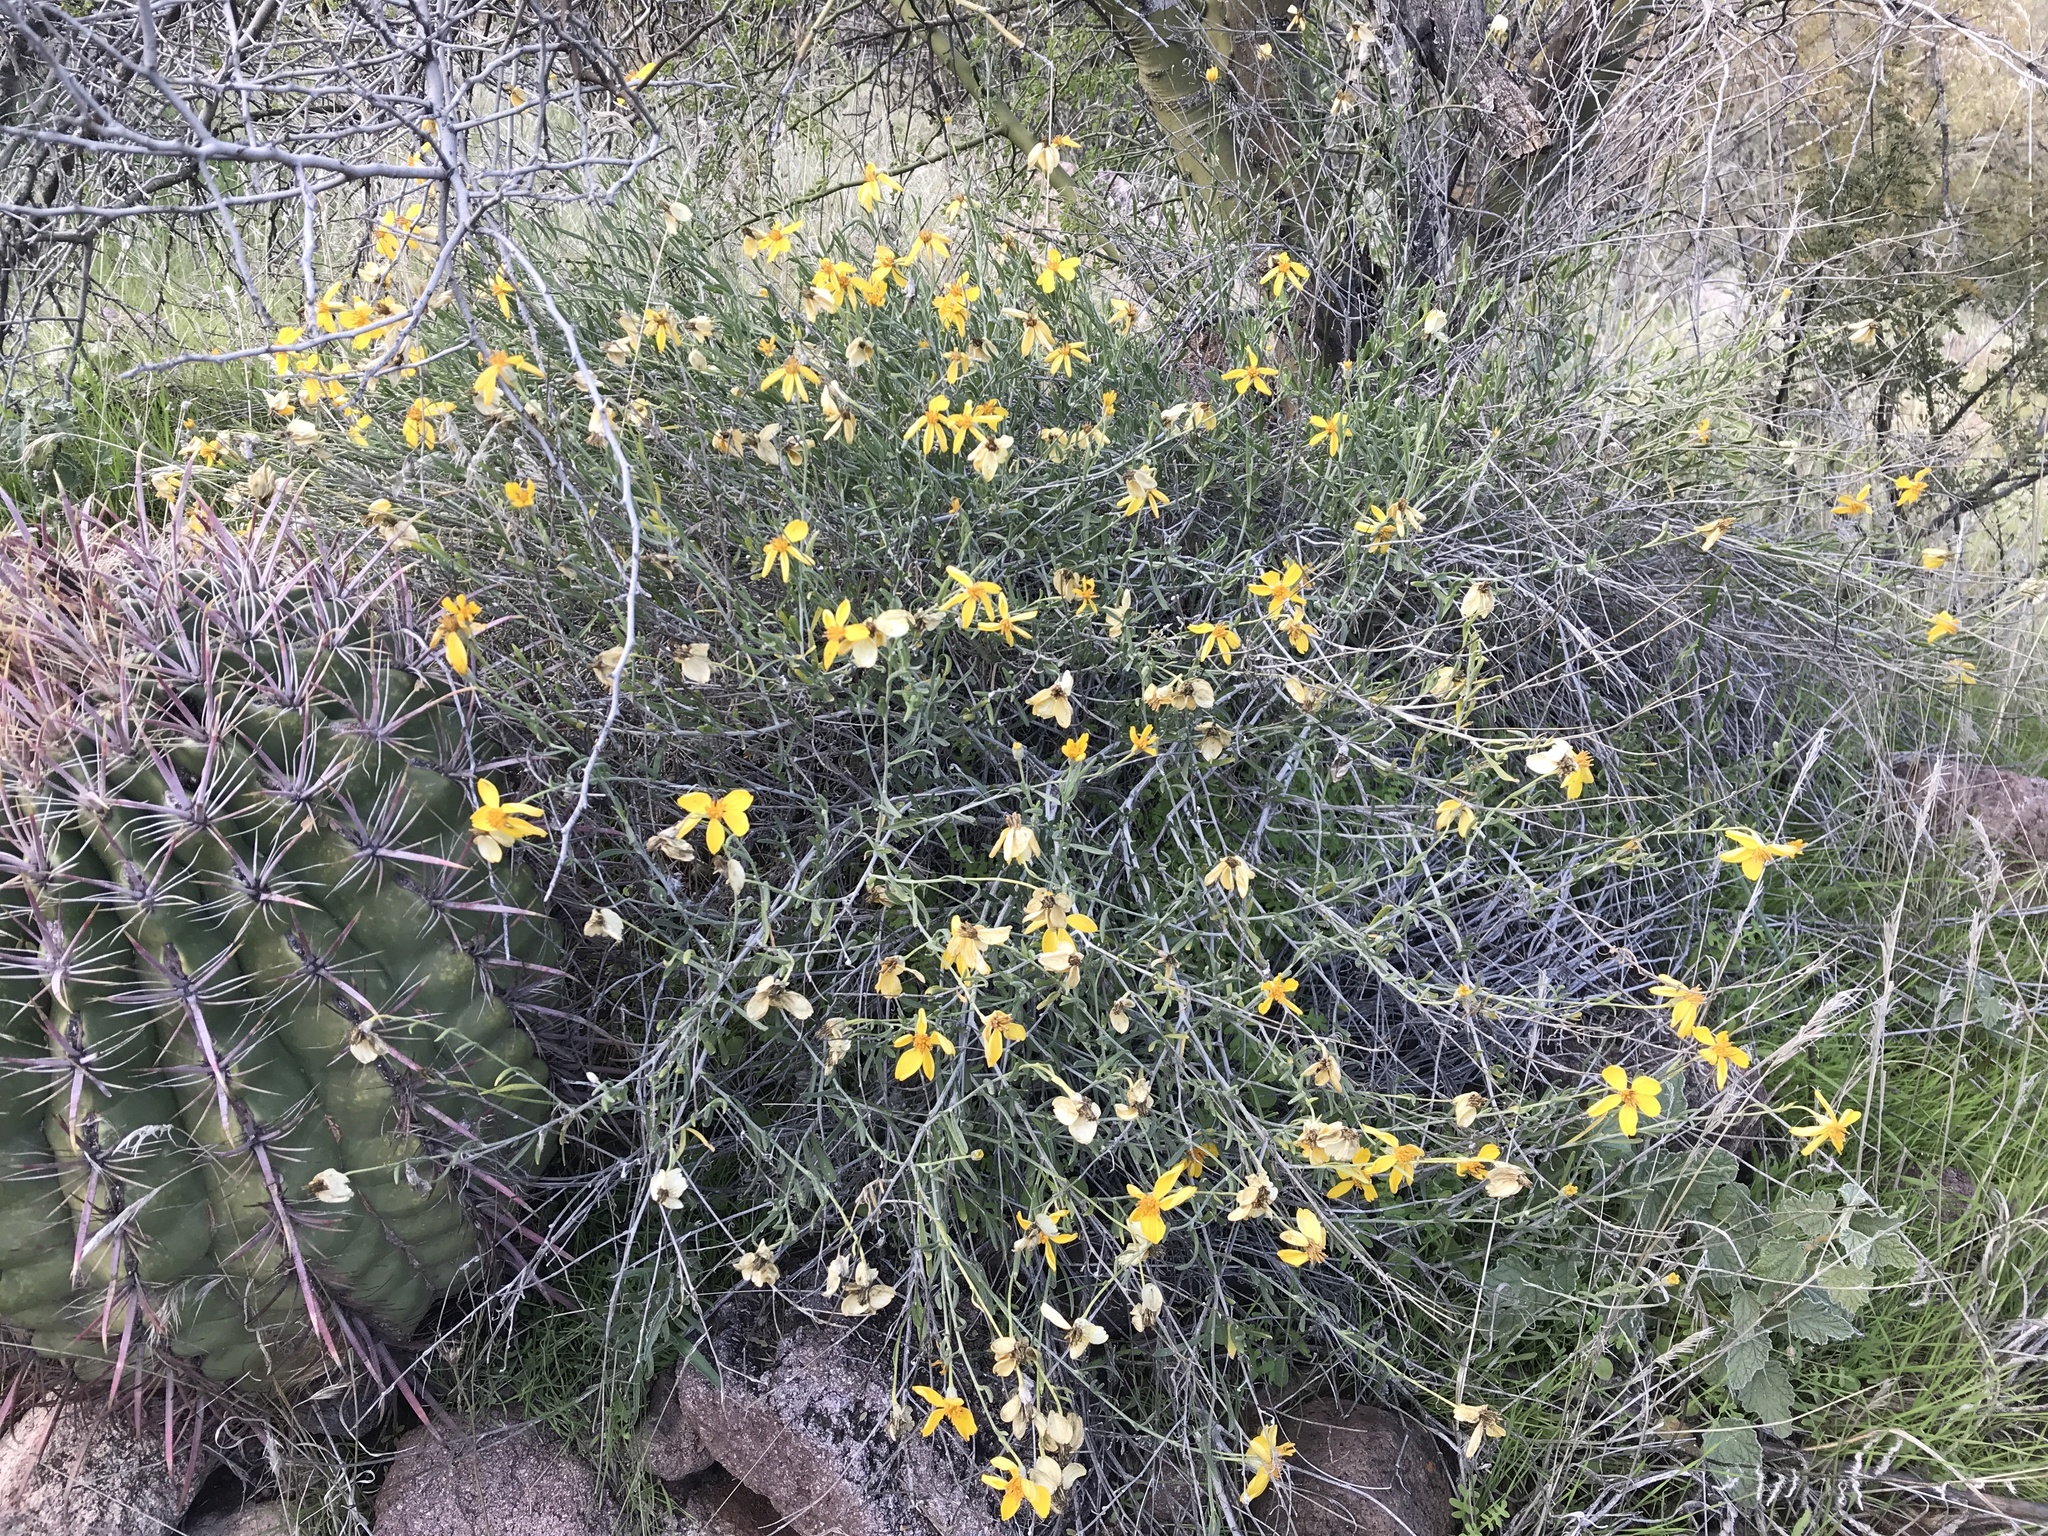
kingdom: Plantae
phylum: Tracheophyta
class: Magnoliopsida
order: Asterales
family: Asteraceae
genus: Psilostrophe
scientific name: Psilostrophe cooperi
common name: White-stem paper-flower
